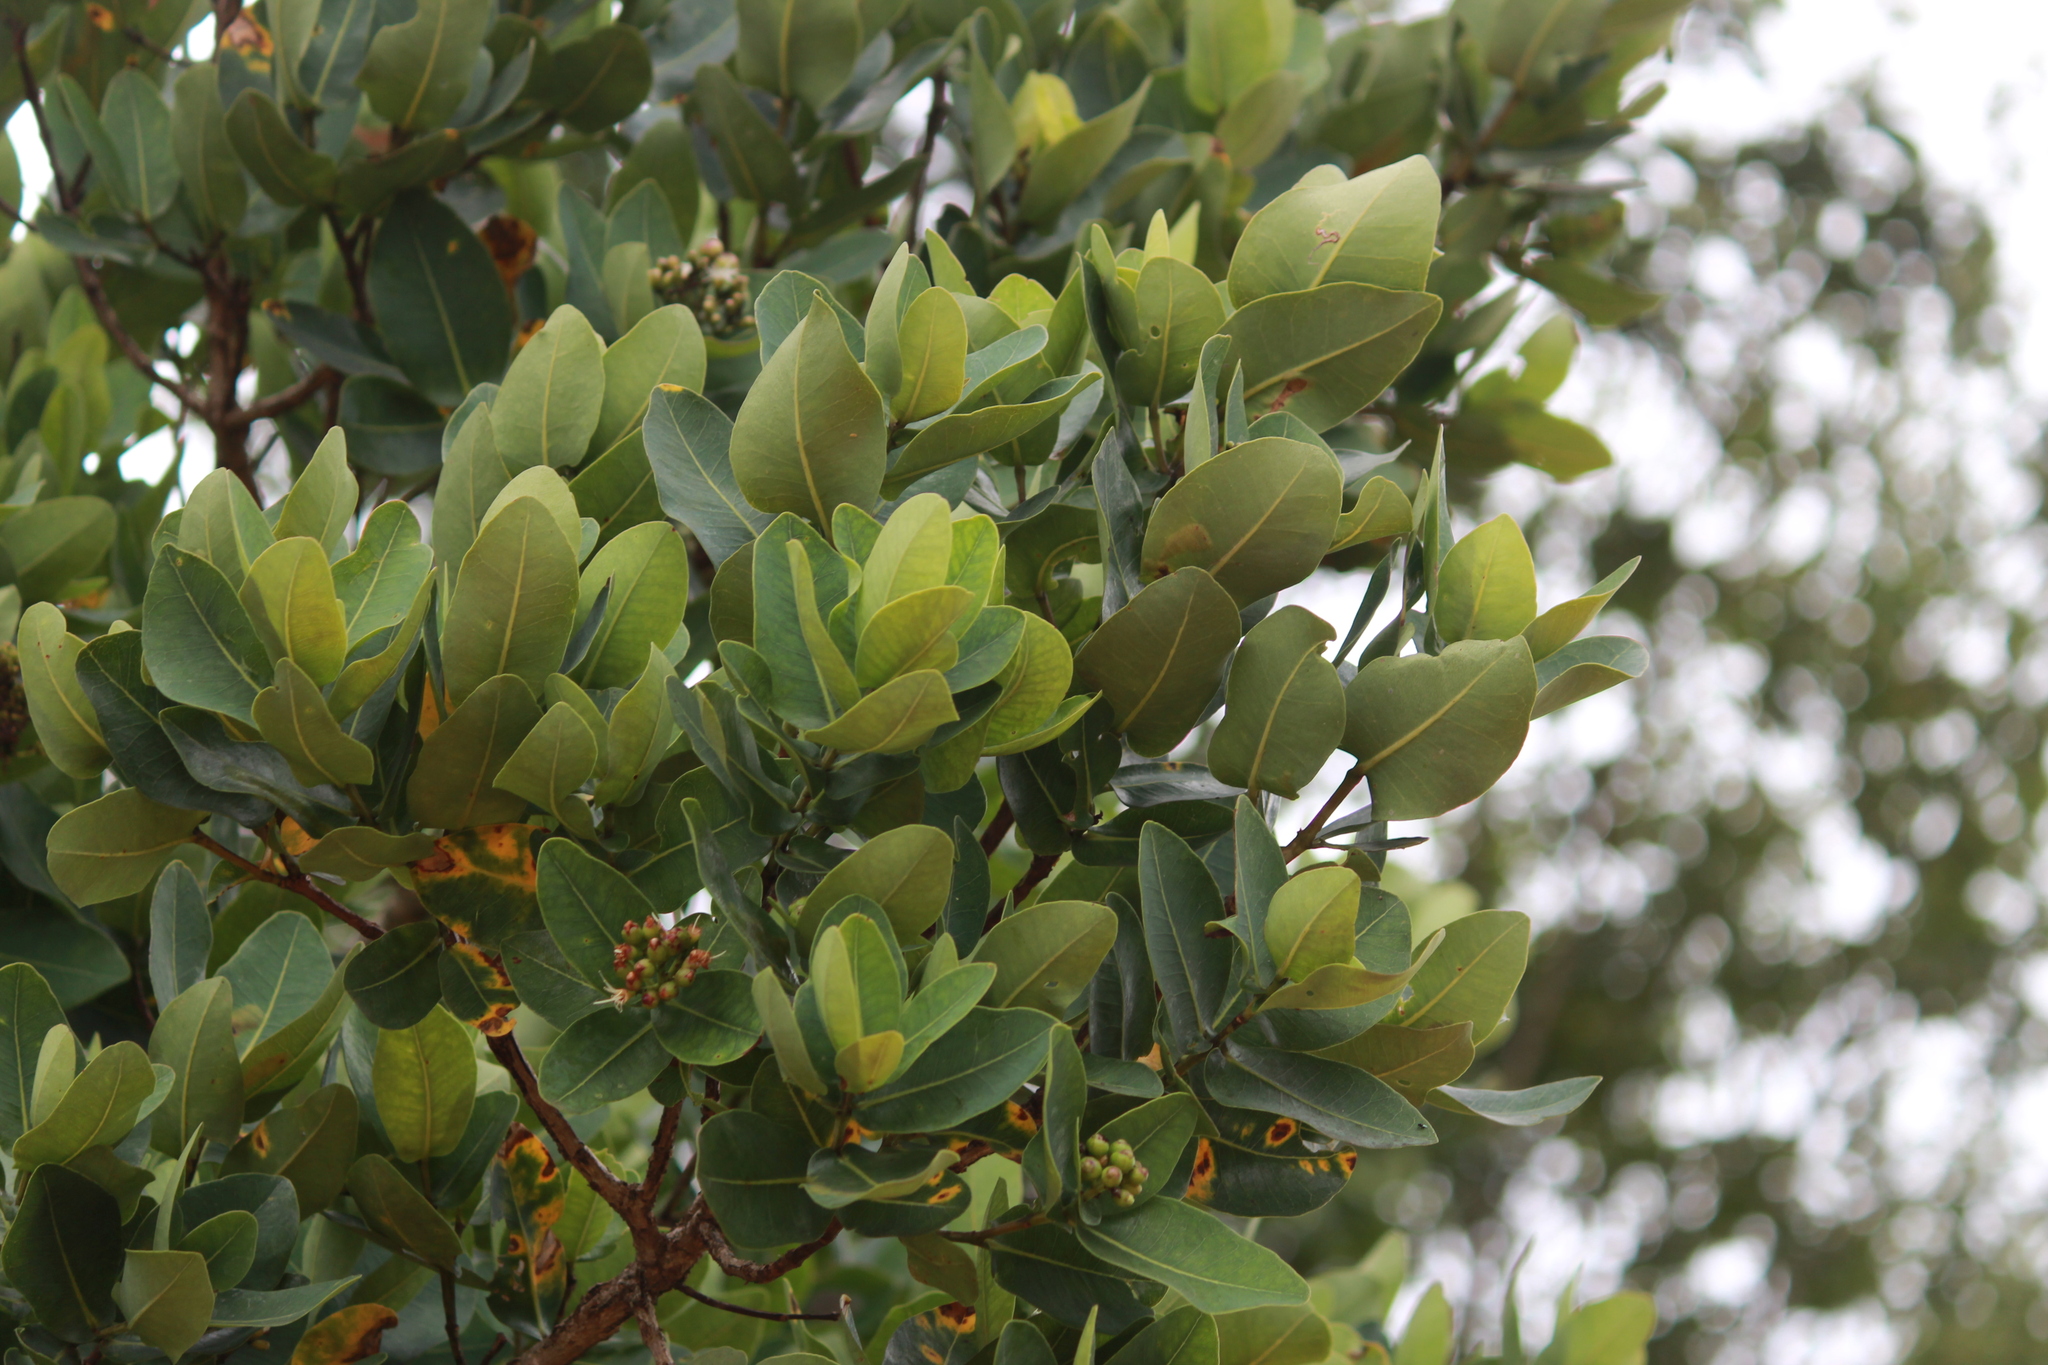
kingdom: Plantae
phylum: Tracheophyta
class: Magnoliopsida
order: Myrtales
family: Myrtaceae
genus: Syzygium
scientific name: Syzygium cordatum
